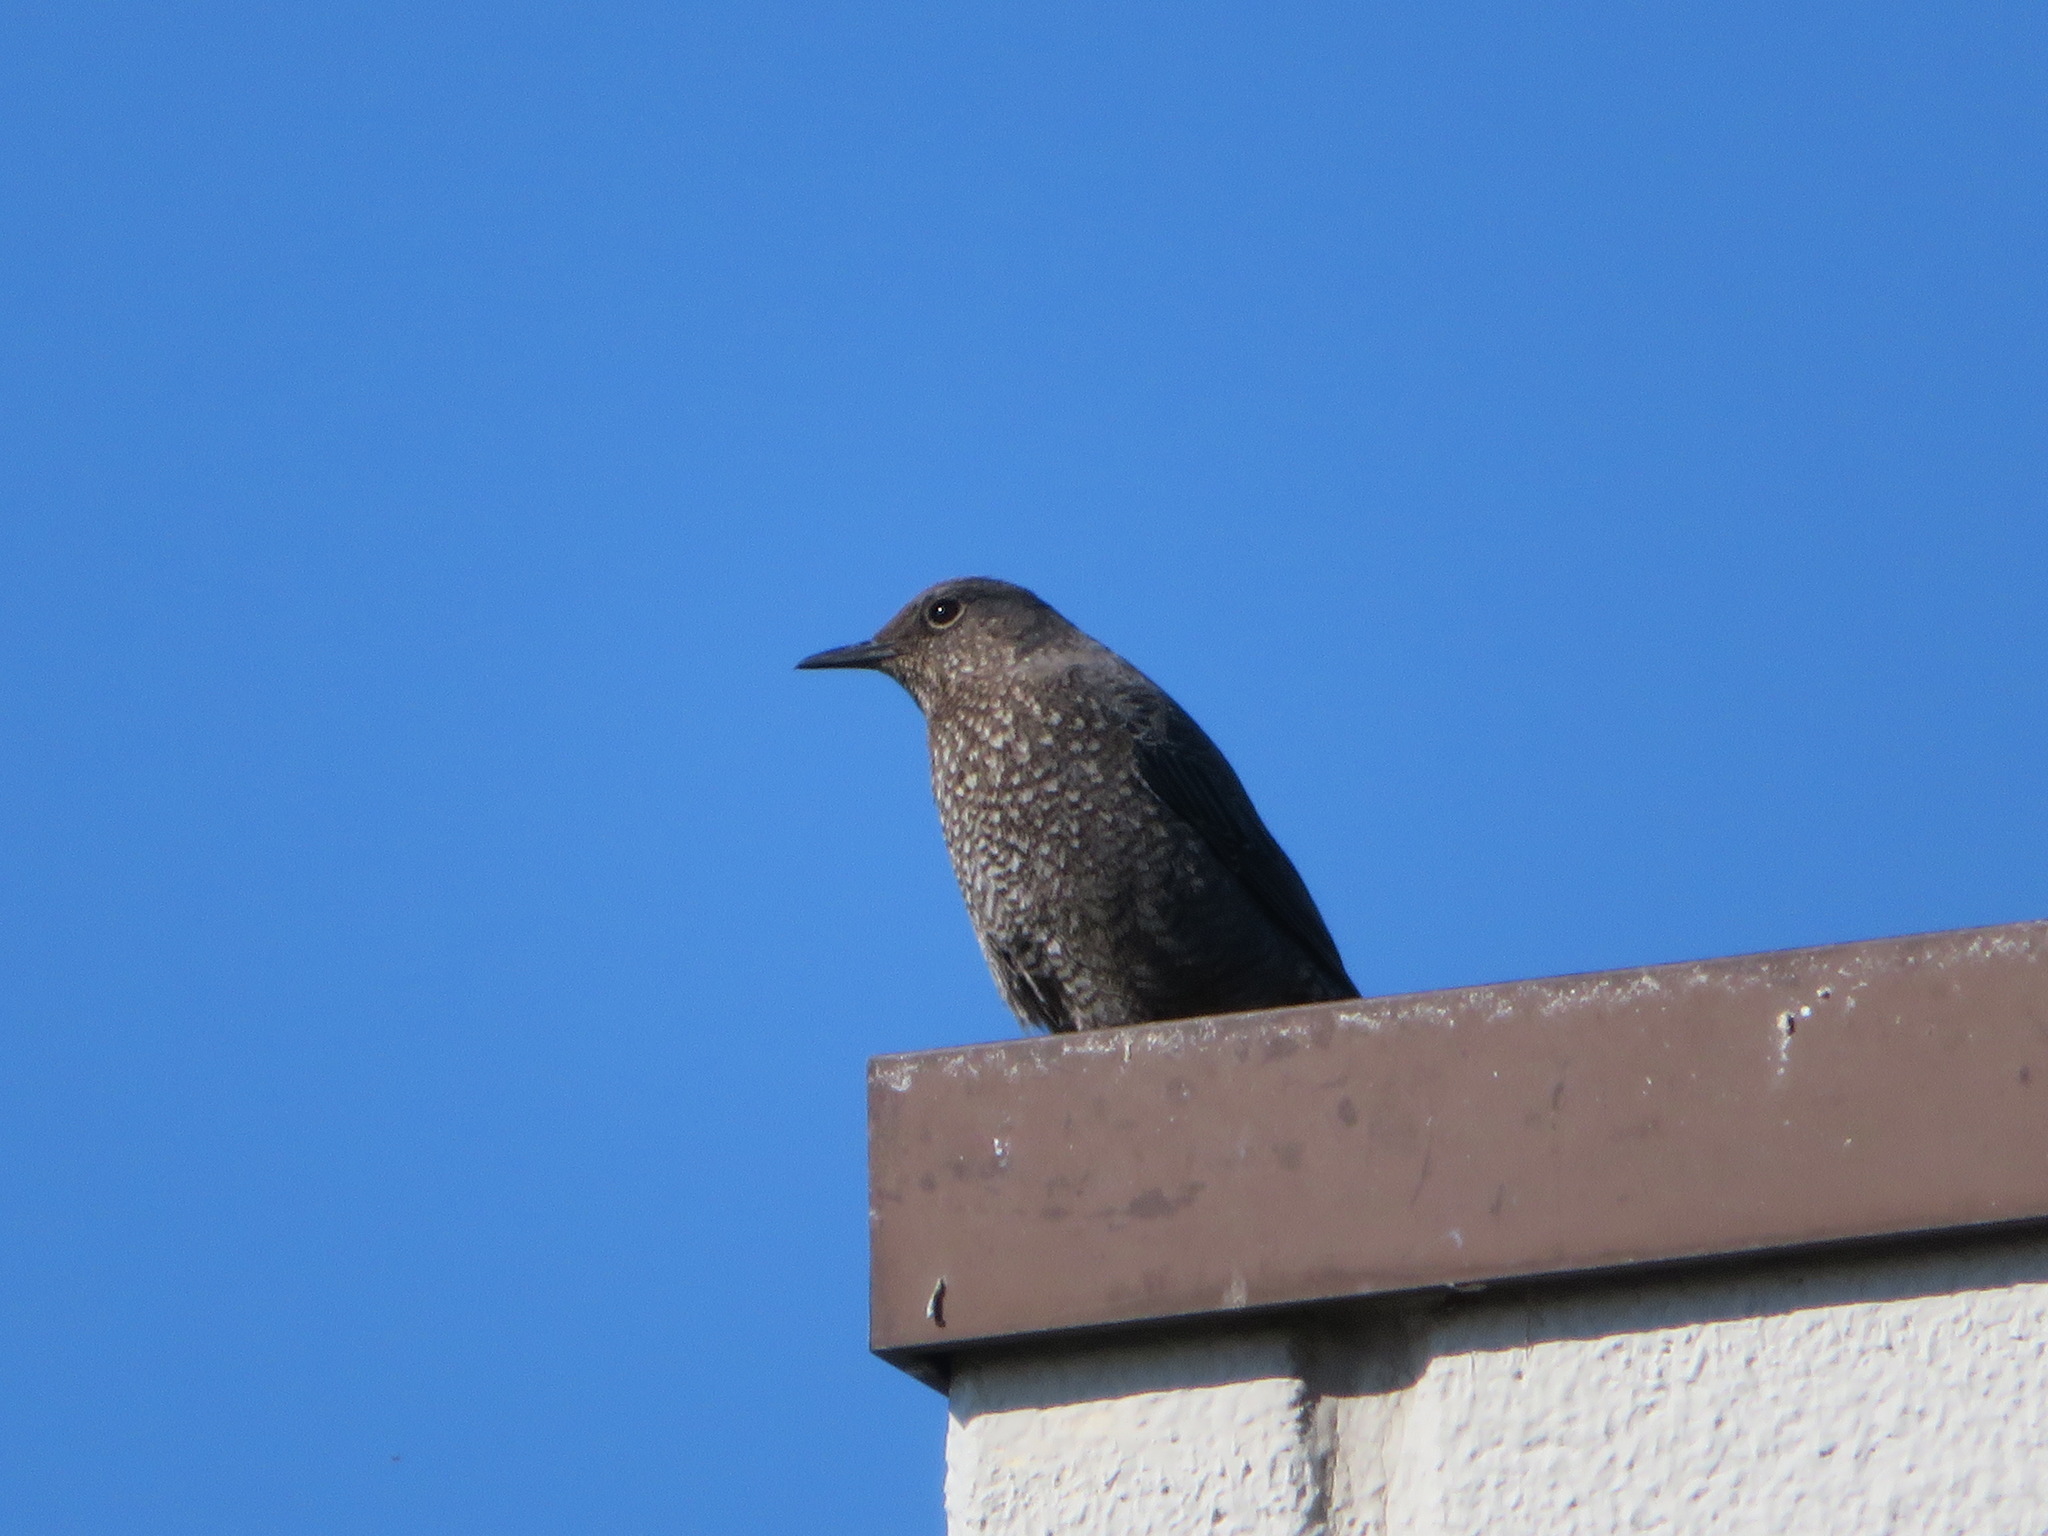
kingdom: Animalia
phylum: Chordata
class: Aves
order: Passeriformes
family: Muscicapidae
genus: Monticola
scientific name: Monticola solitarius
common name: Blue rock thrush
